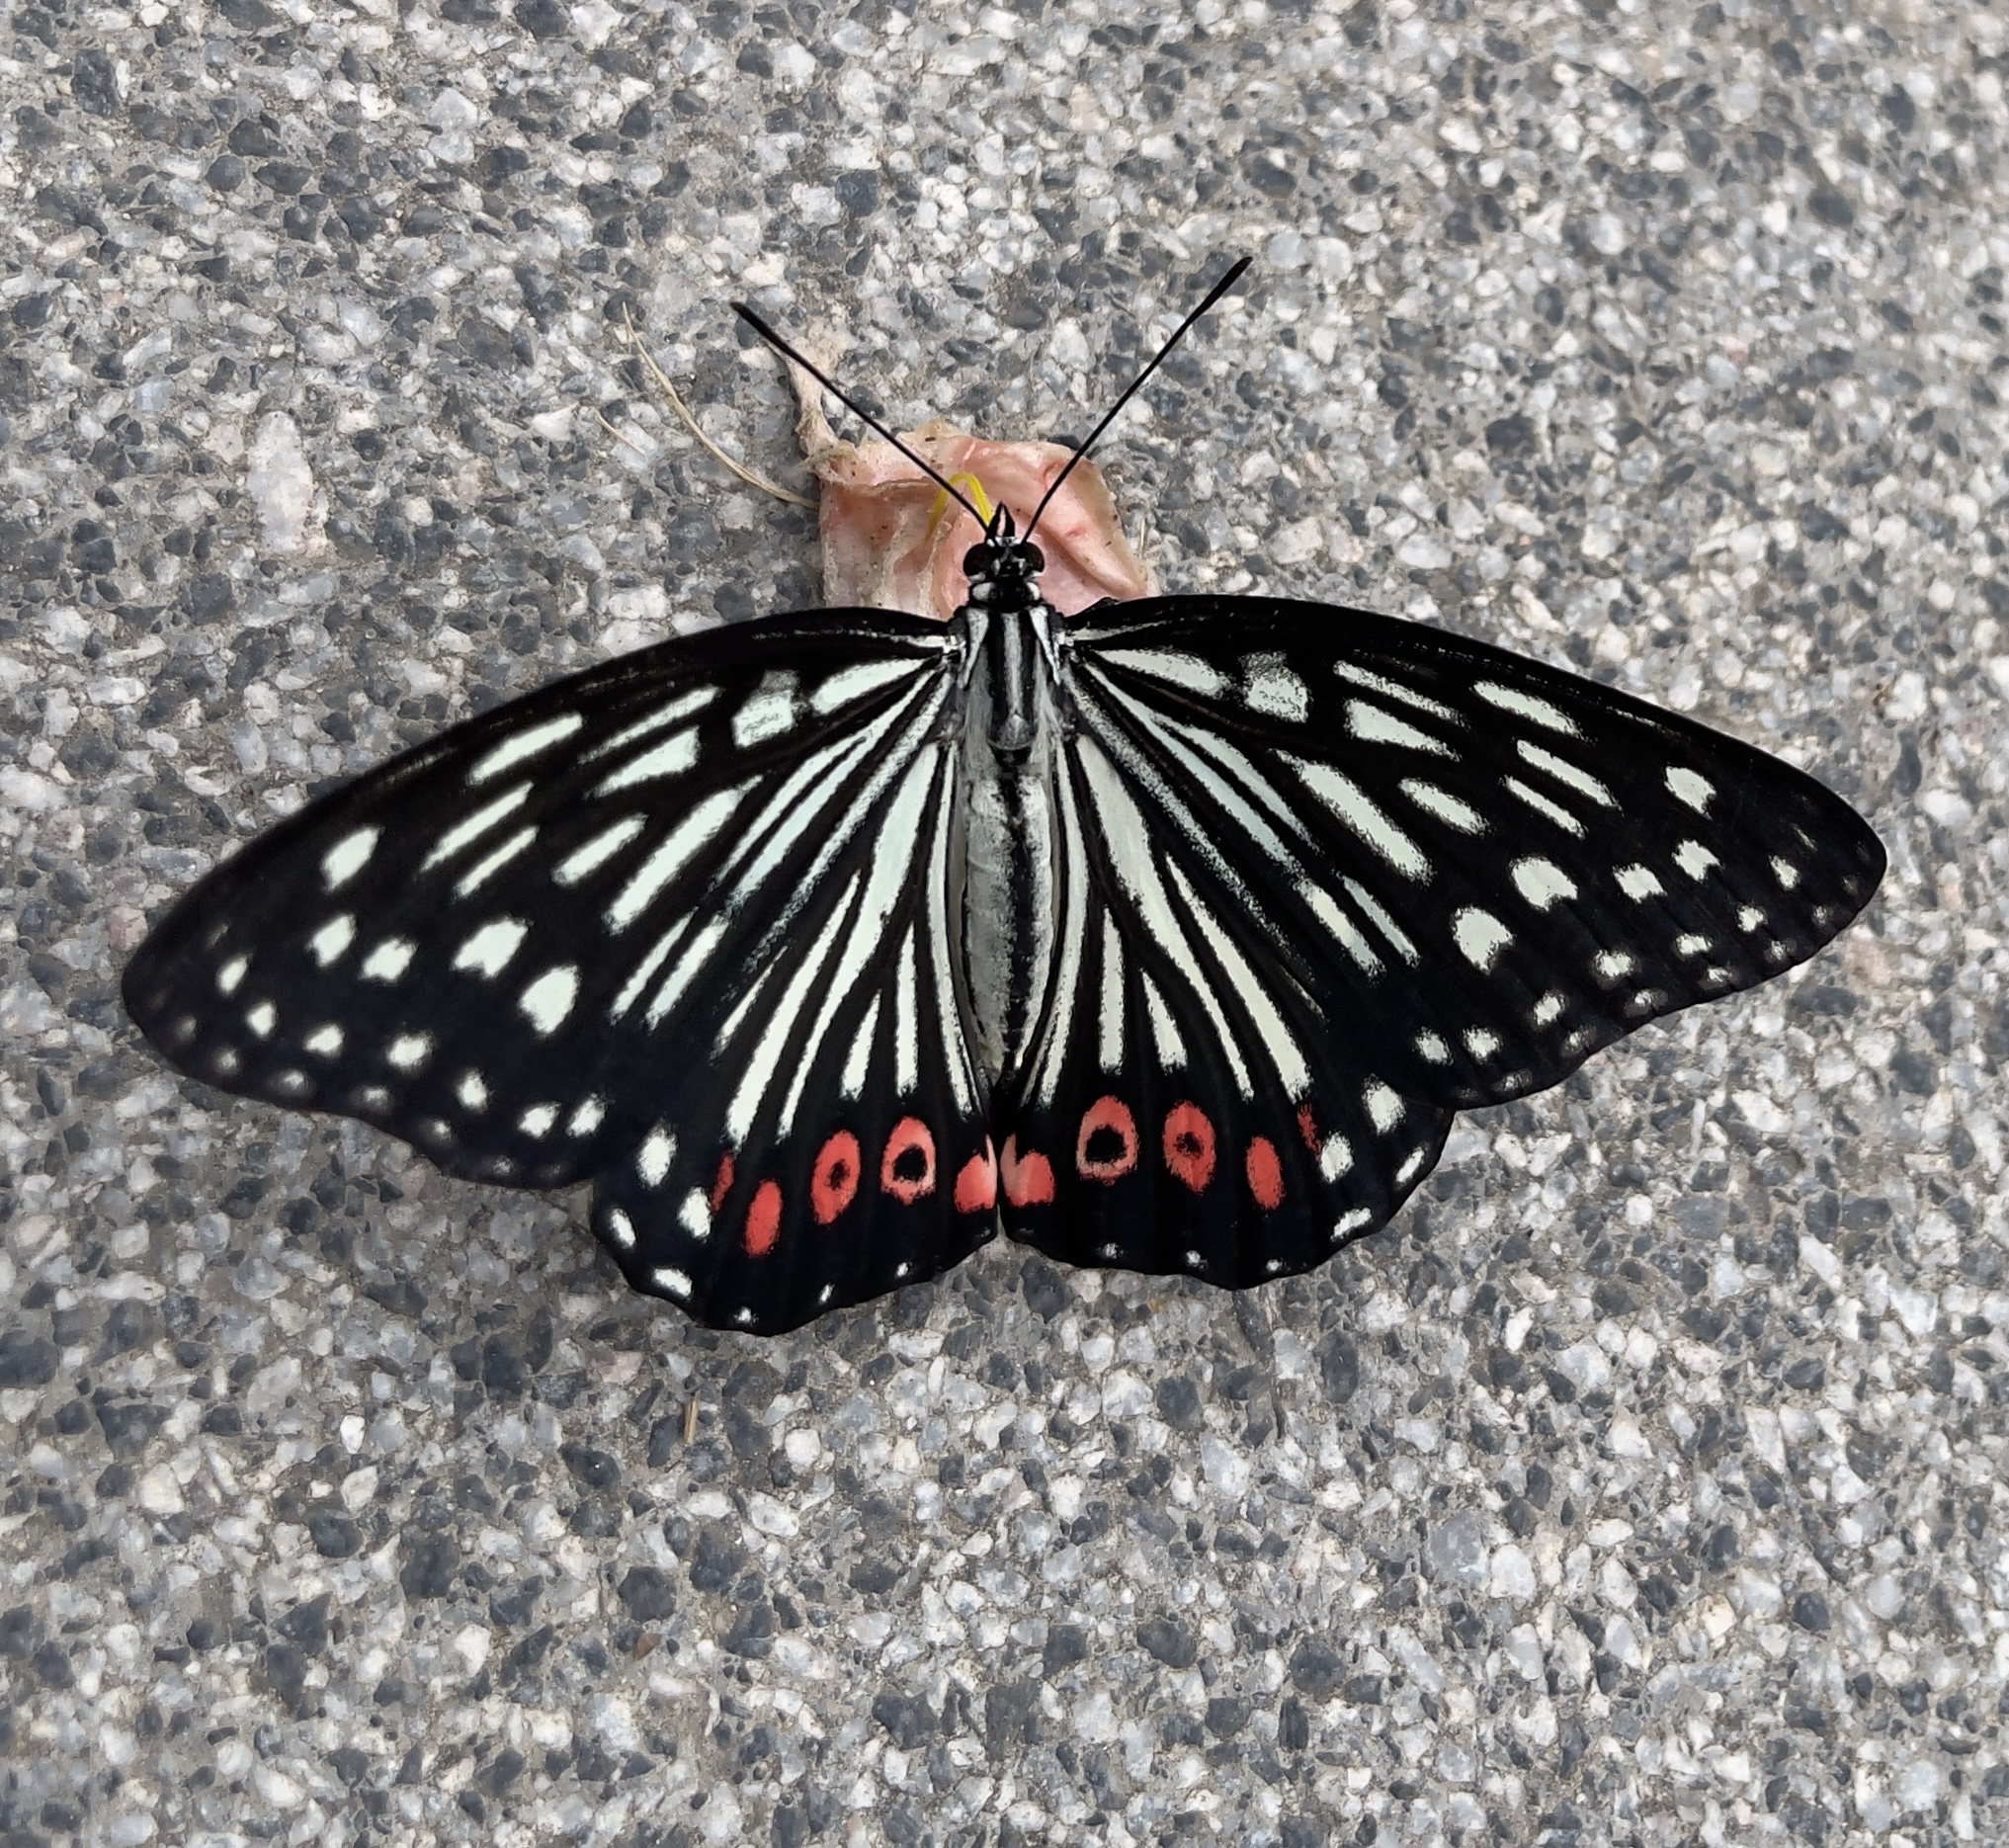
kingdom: Animalia
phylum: Arthropoda
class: Insecta
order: Lepidoptera
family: Nymphalidae
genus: Hestina
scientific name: Hestina assimilis
